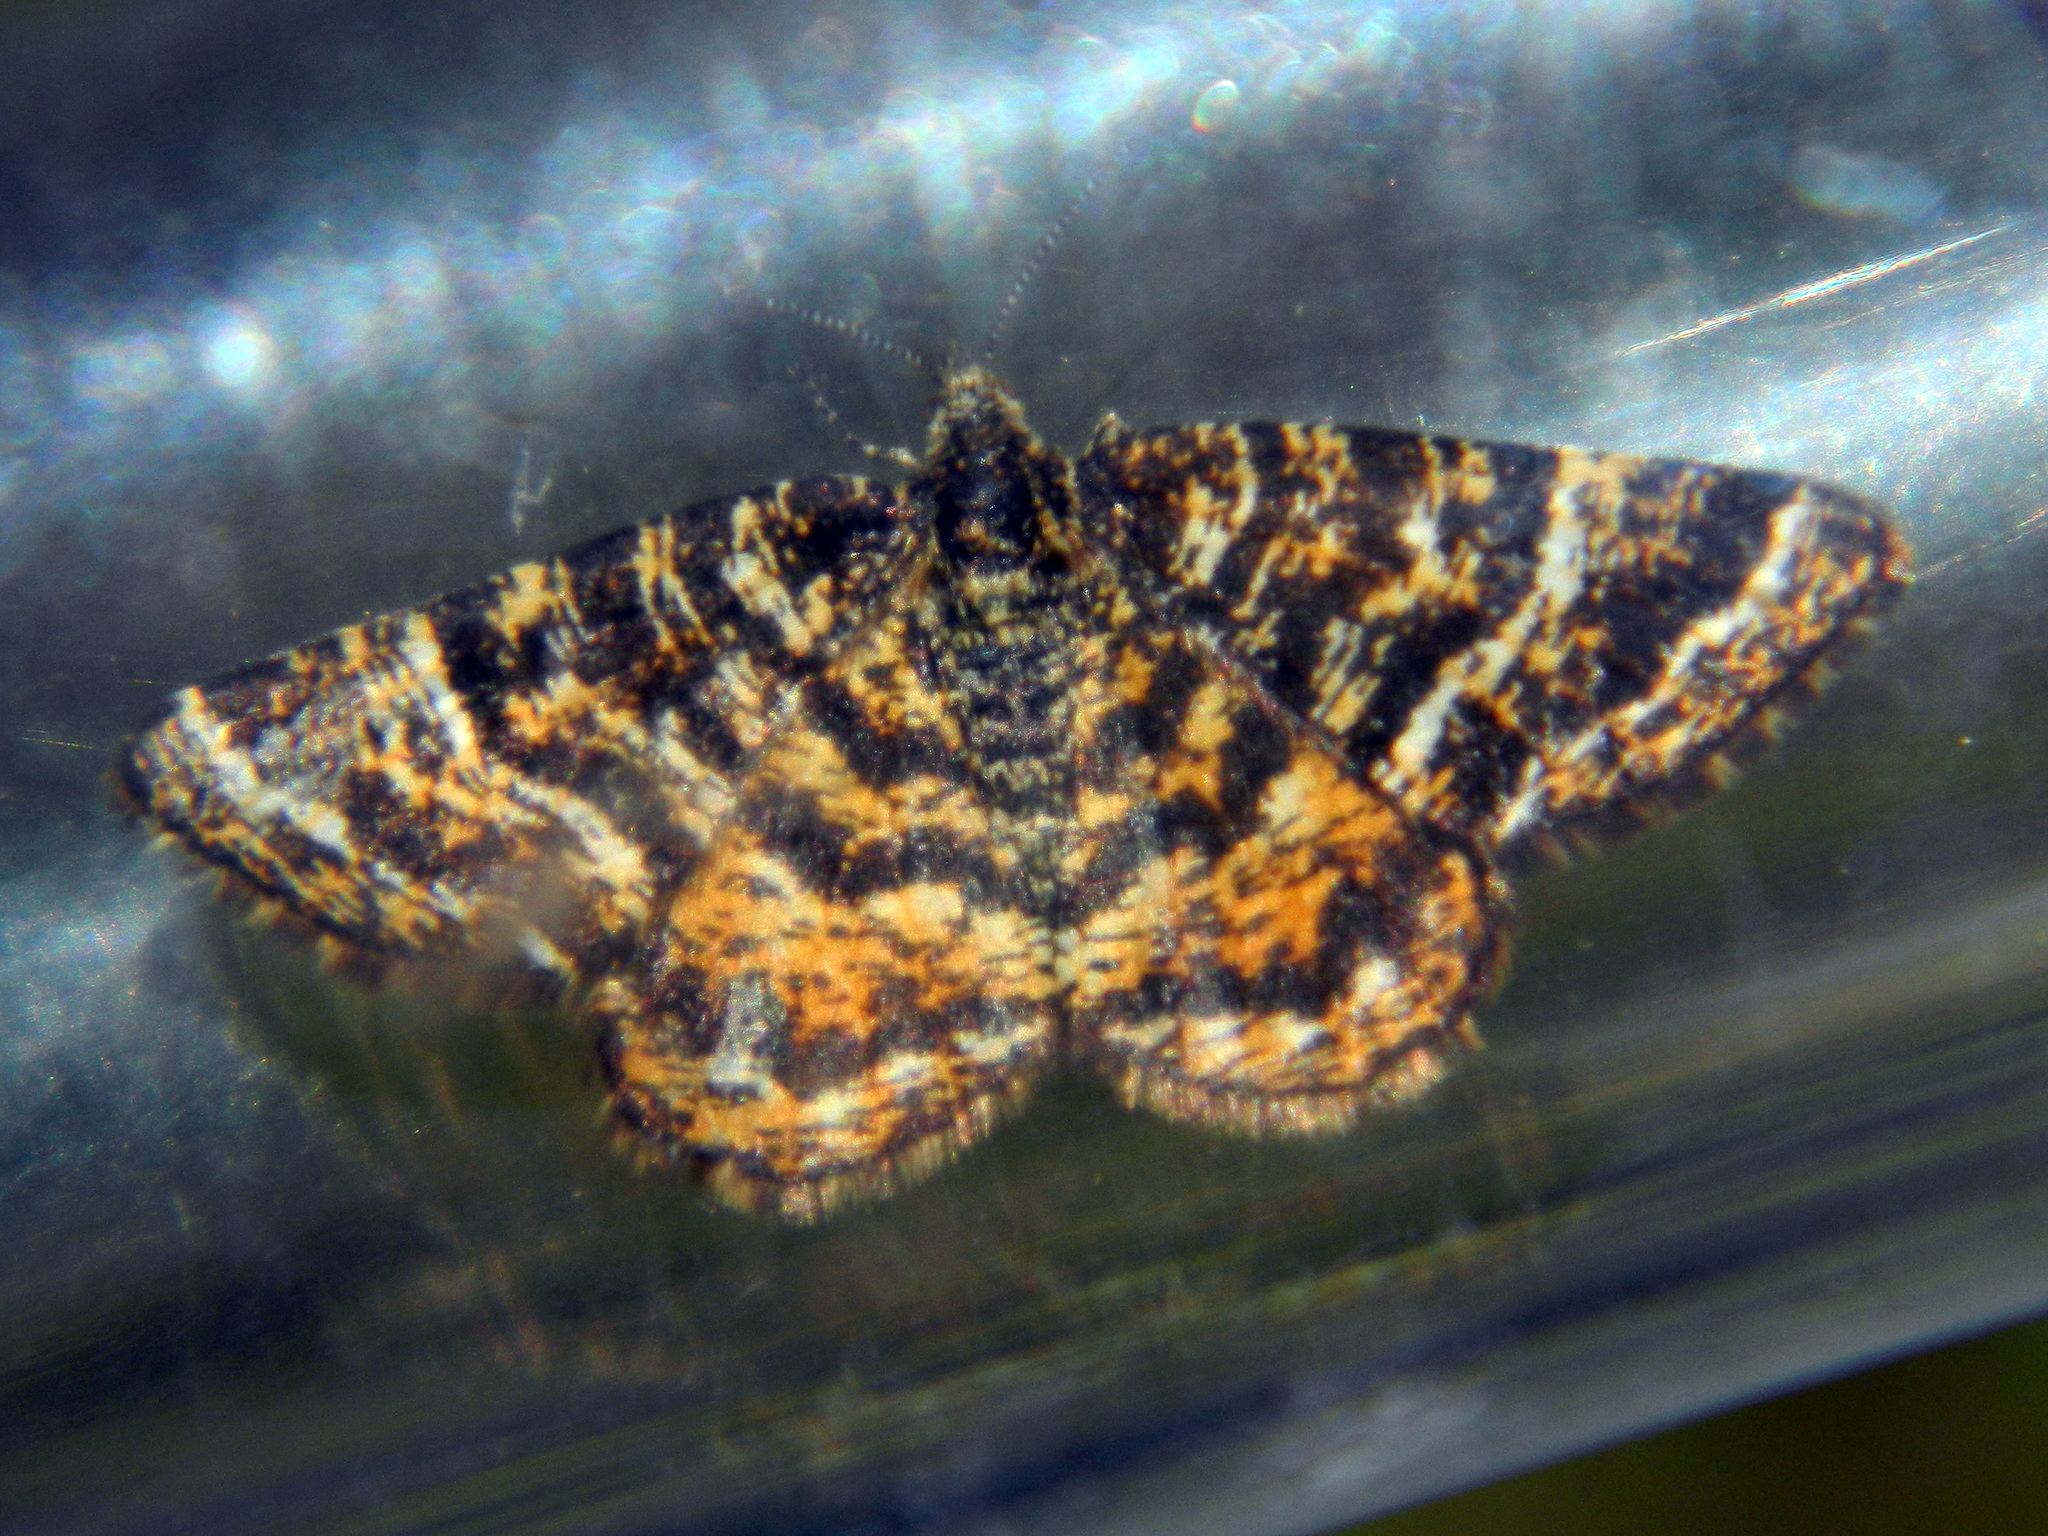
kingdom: Animalia
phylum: Arthropoda
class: Insecta
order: Lepidoptera
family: Geometridae
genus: Macaria
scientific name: Macaria truncataria
